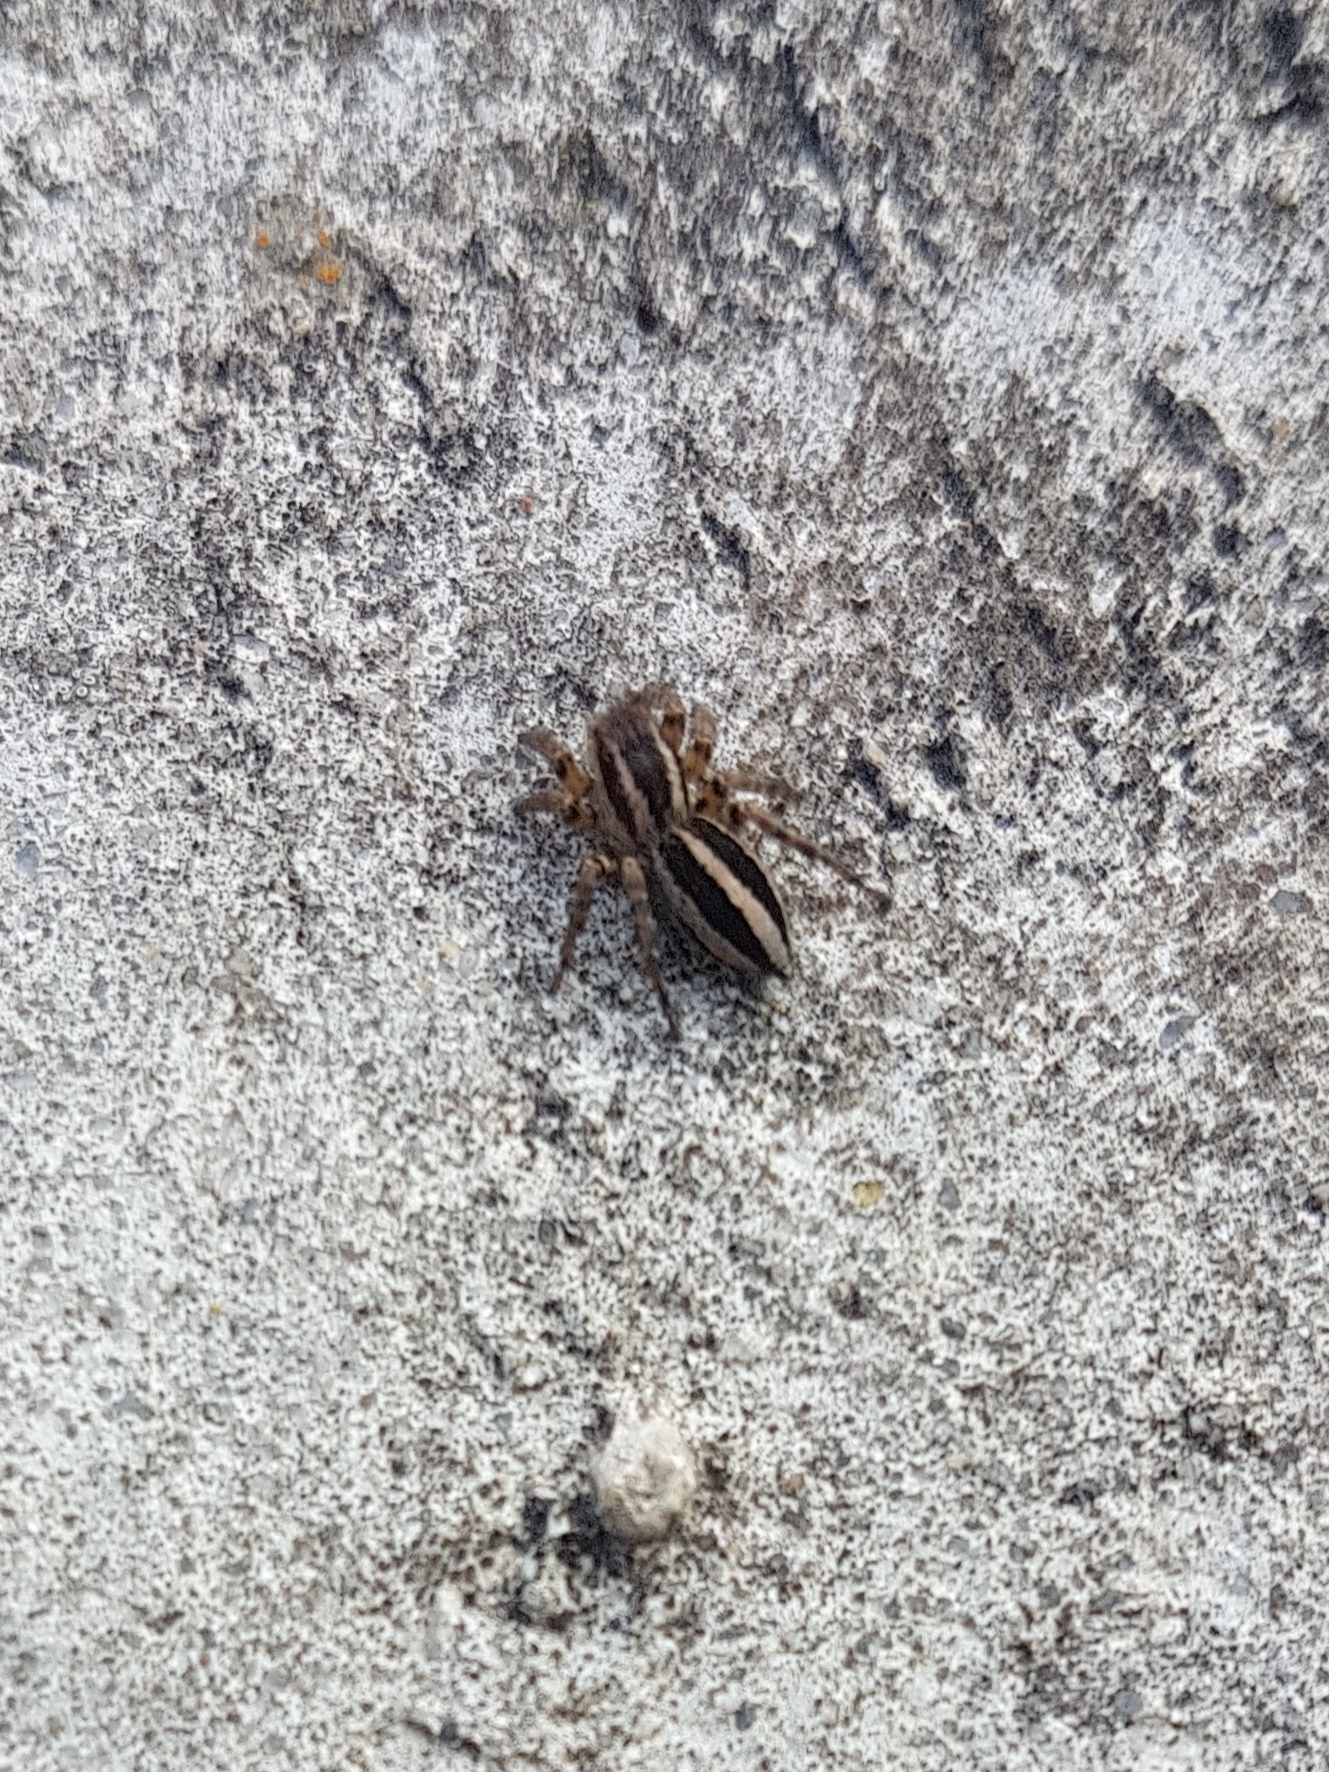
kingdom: Animalia
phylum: Arthropoda
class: Arachnida
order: Araneae
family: Salticidae
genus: Phlegra
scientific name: Phlegra fasciata
